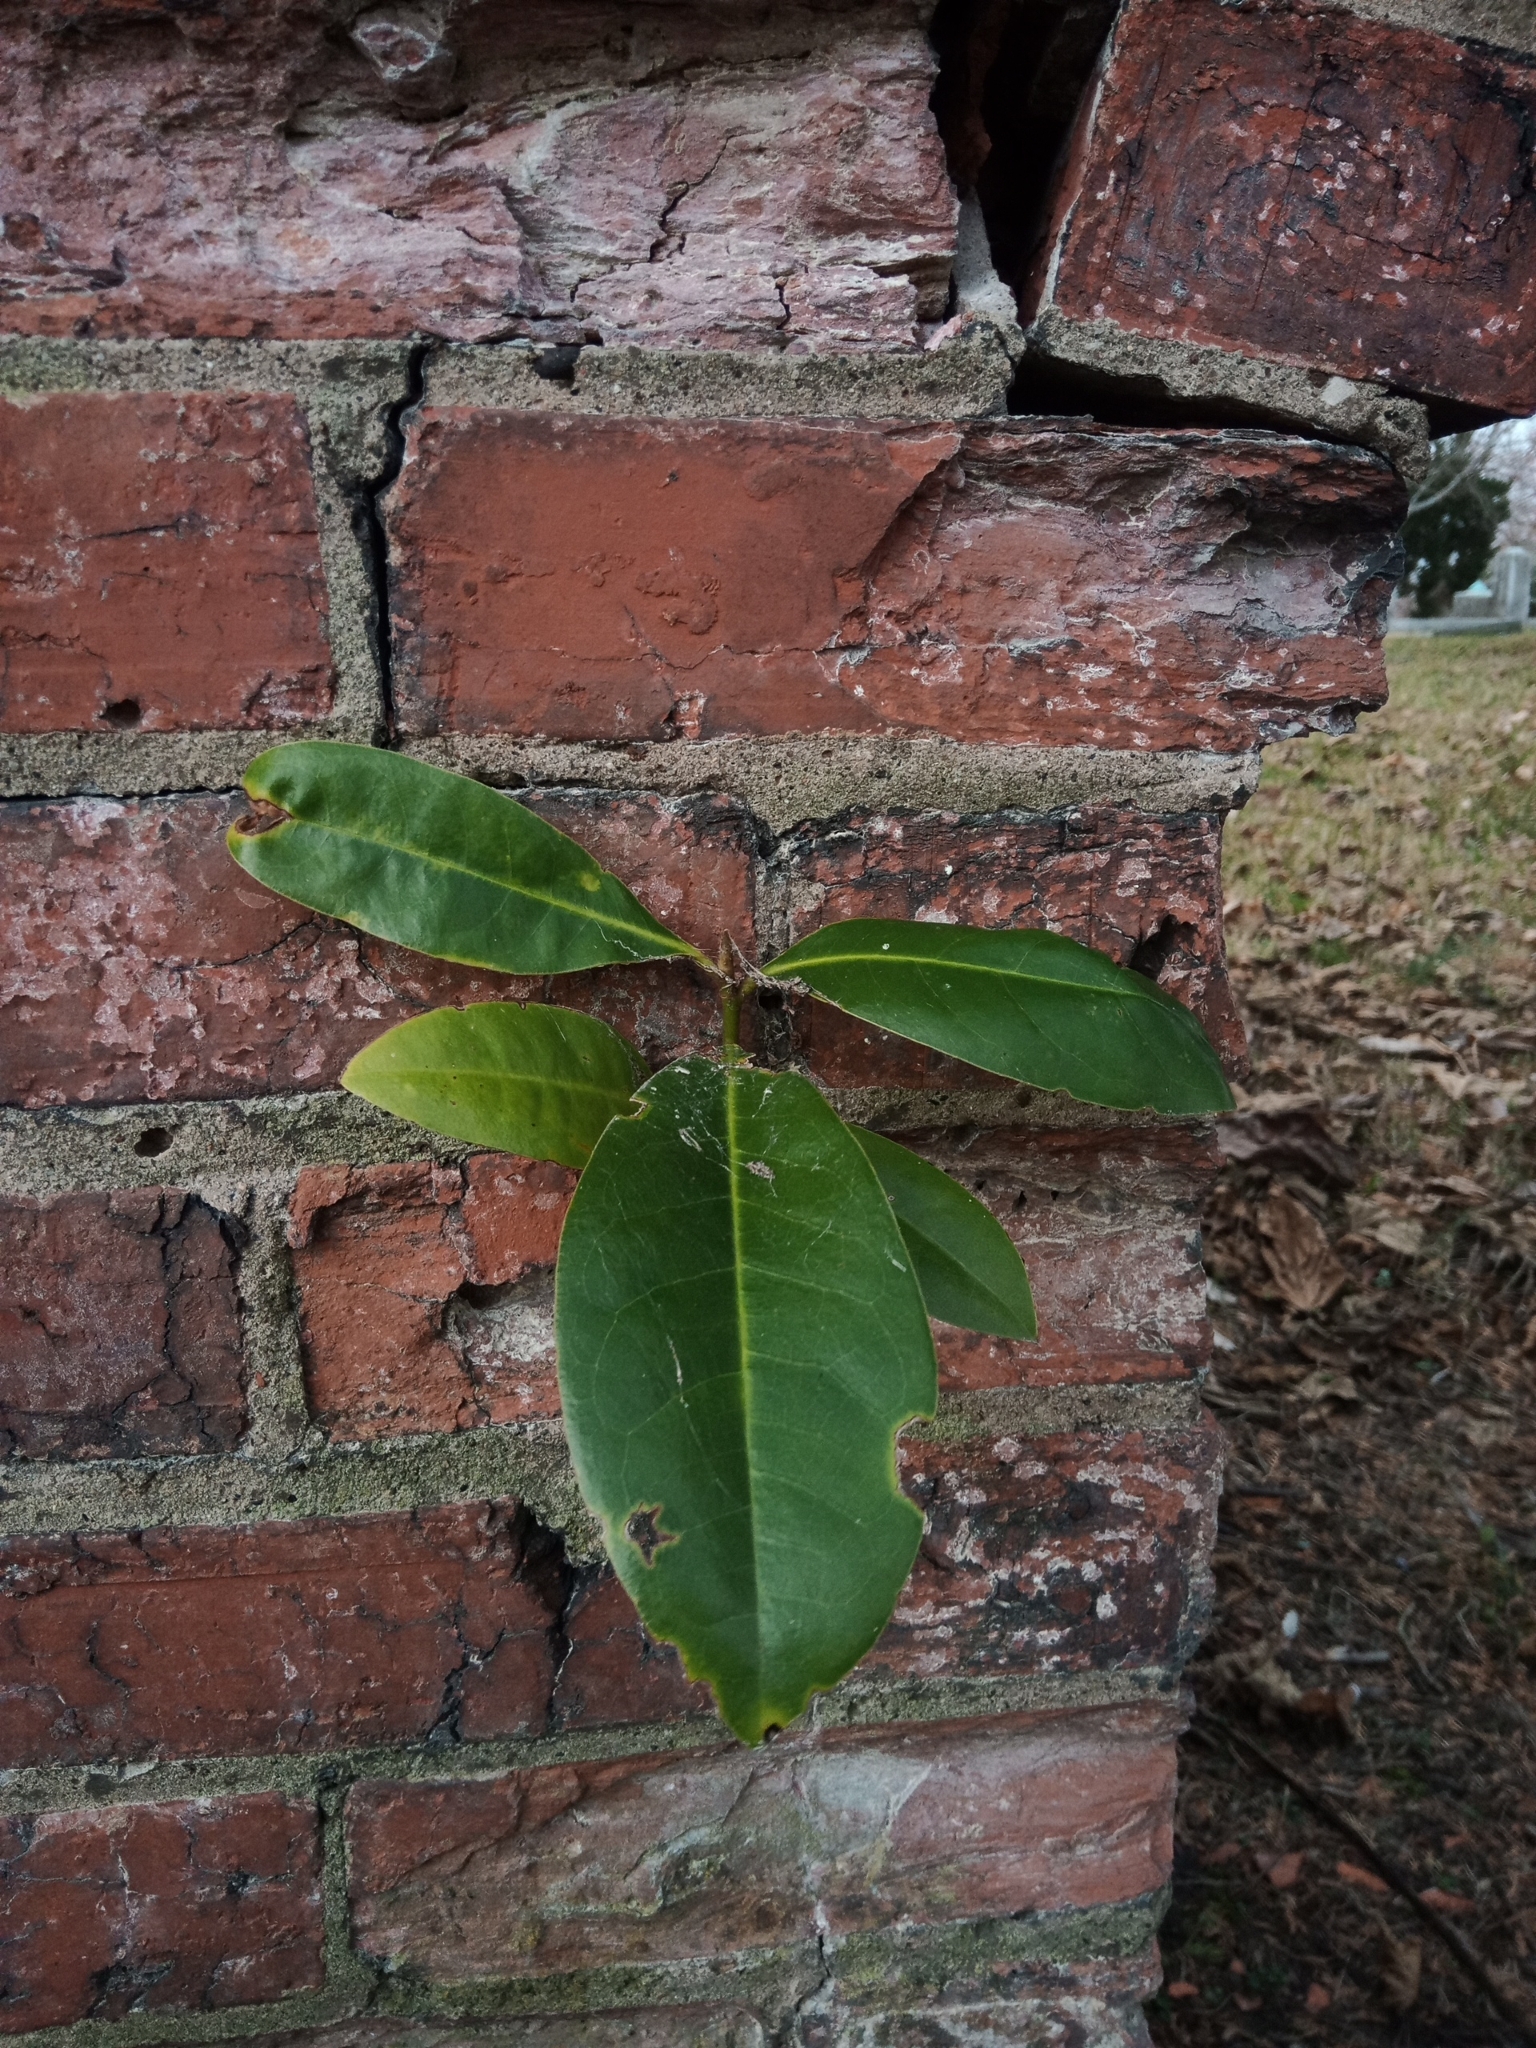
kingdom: Plantae
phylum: Tracheophyta
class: Magnoliopsida
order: Magnoliales
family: Magnoliaceae
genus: Magnolia
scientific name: Magnolia grandiflora
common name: Southern magnolia
